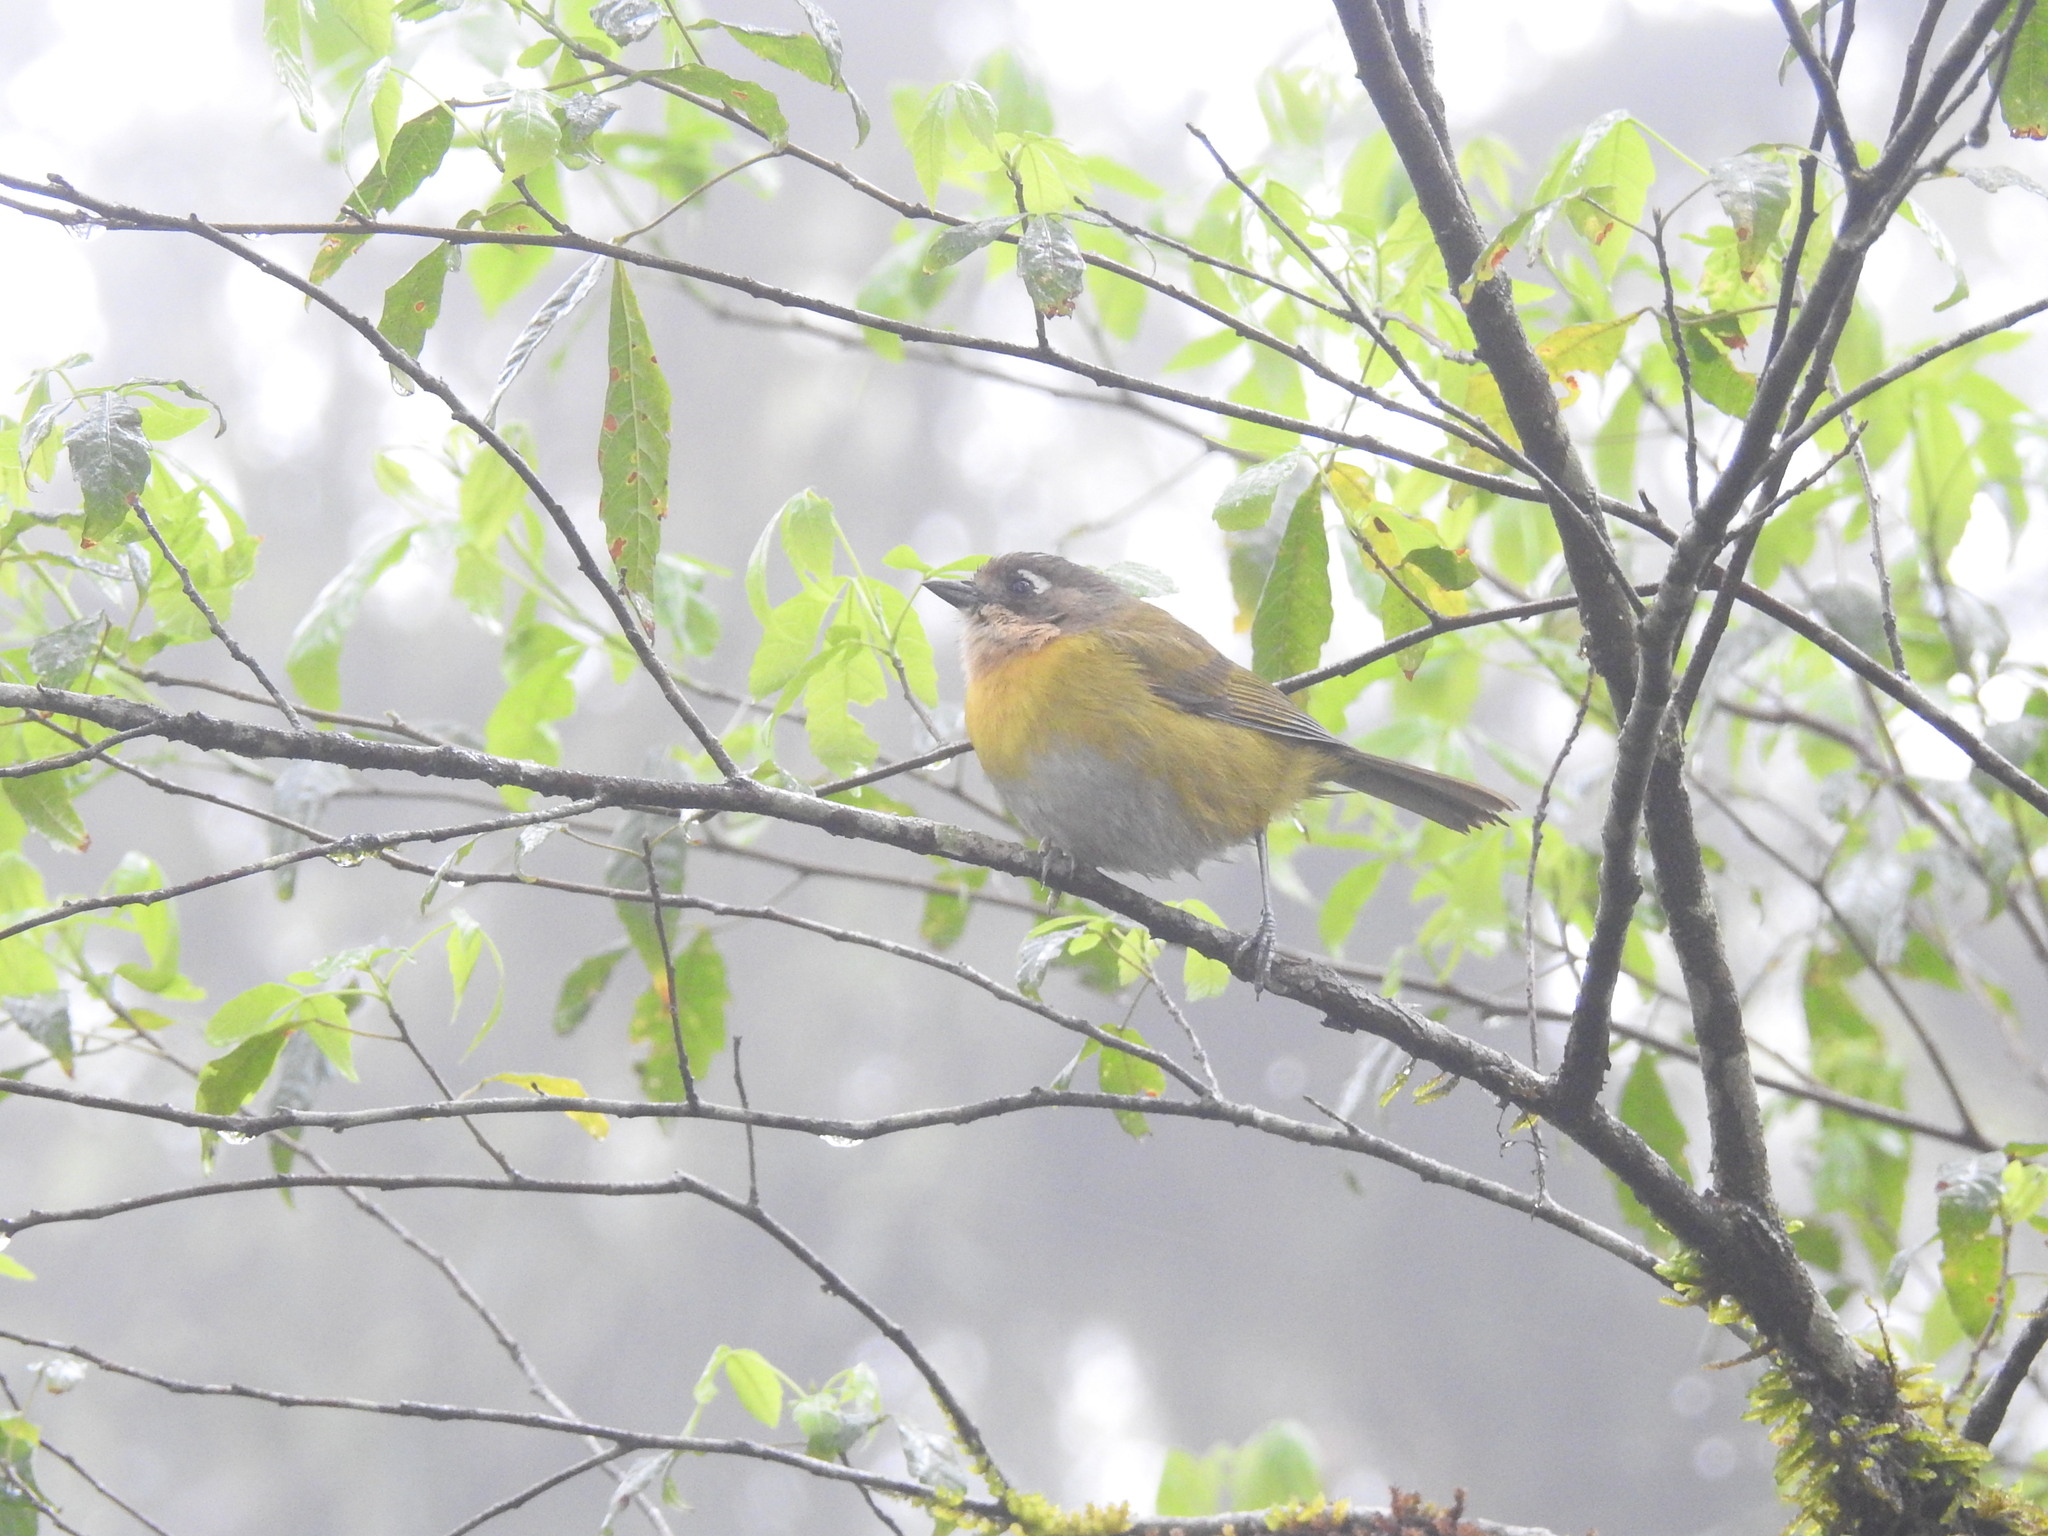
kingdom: Animalia
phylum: Chordata
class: Aves
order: Passeriformes
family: Passerellidae
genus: Chlorospingus
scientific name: Chlorospingus flavopectus
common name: Common chlorospingus
